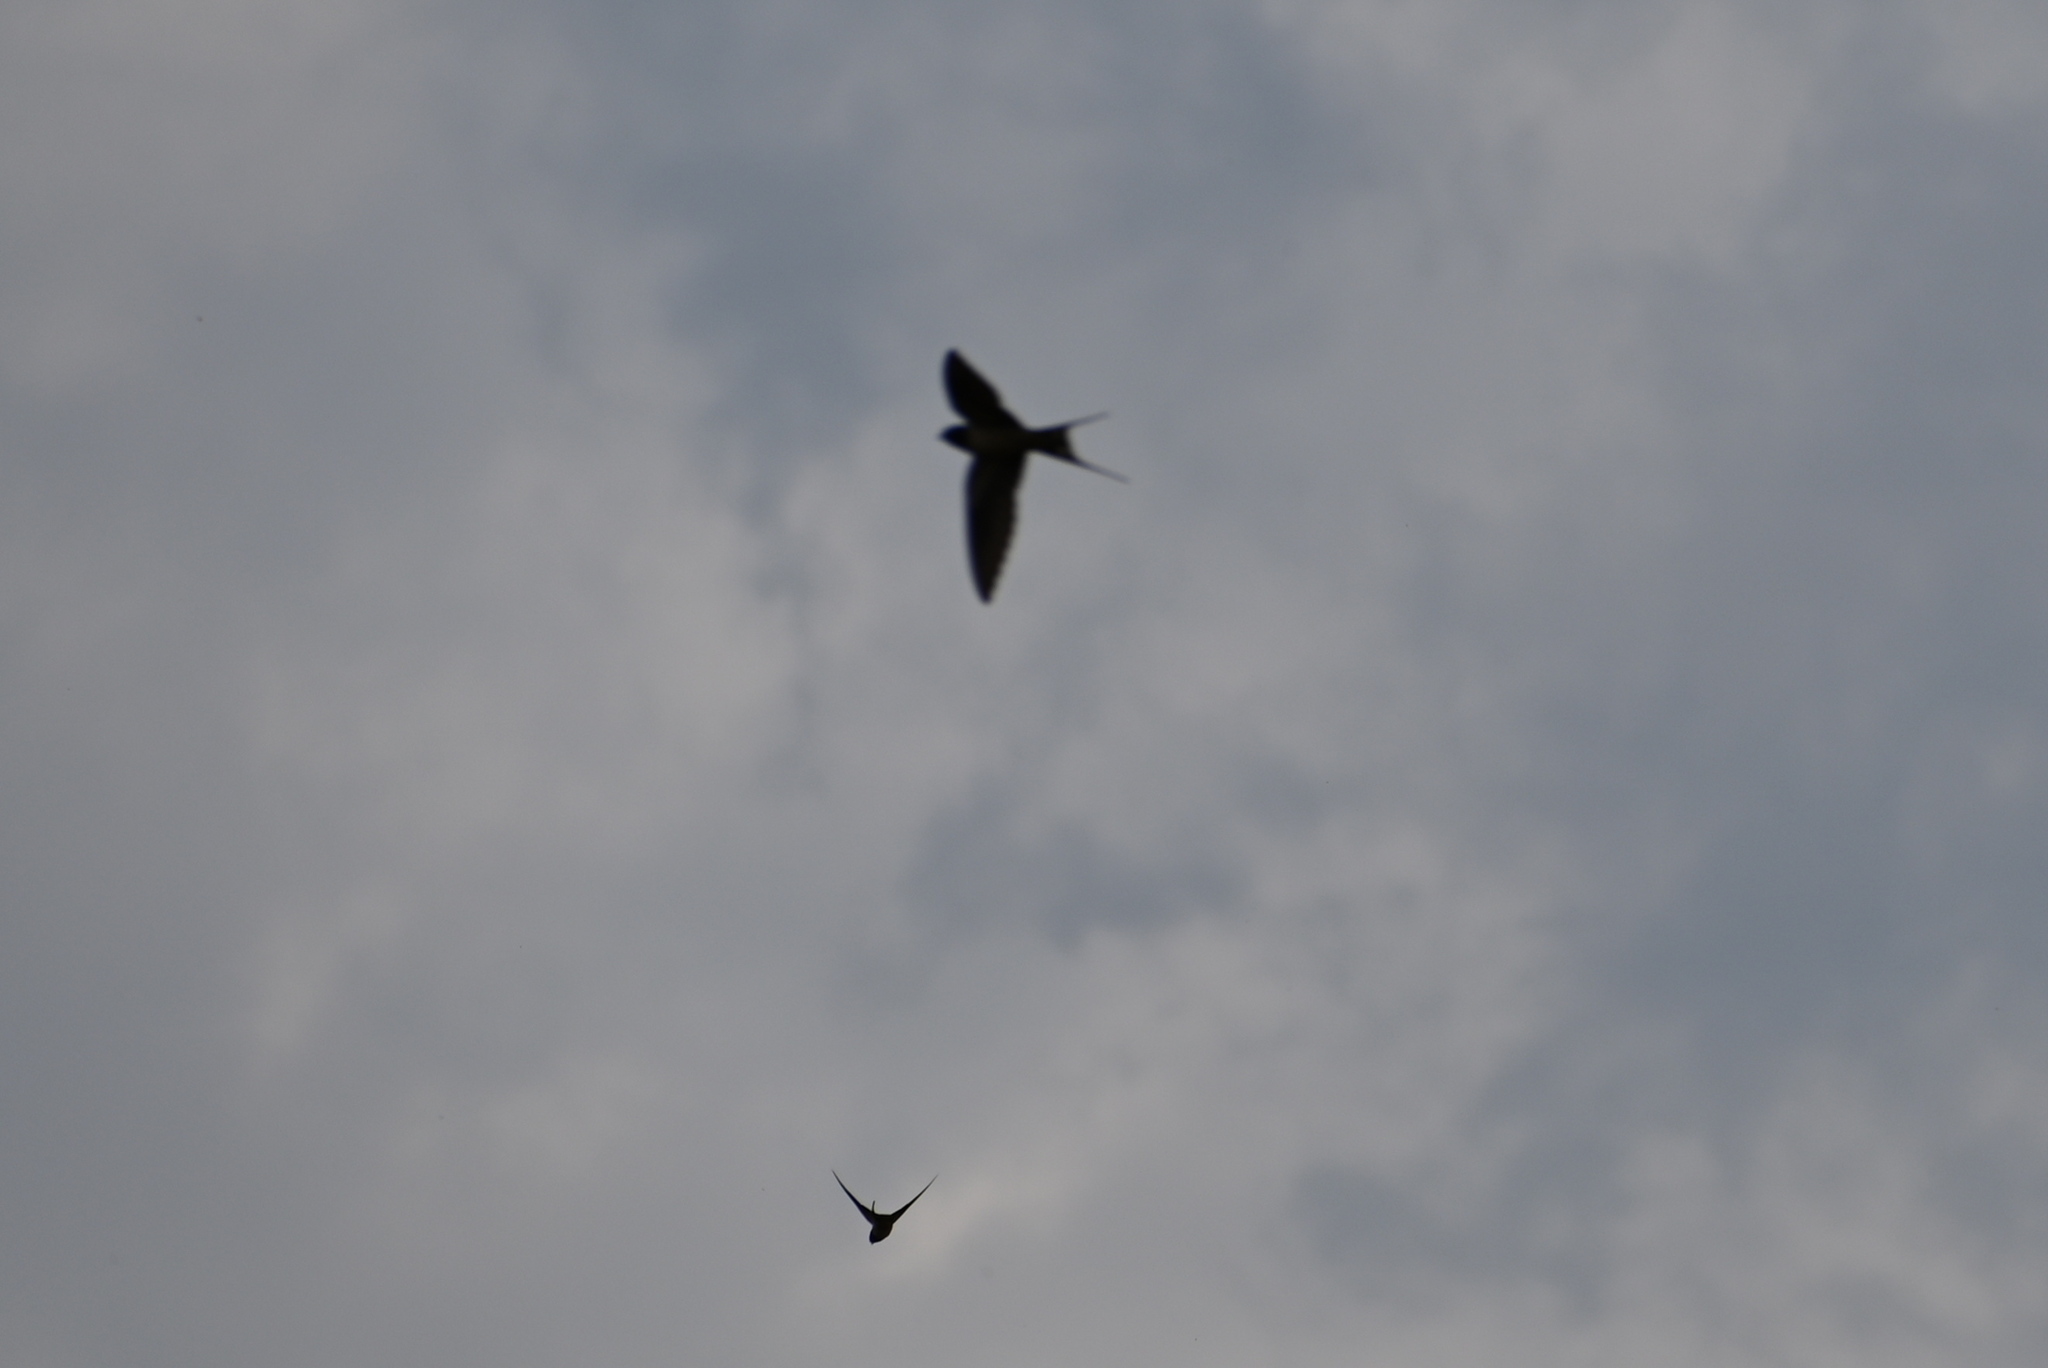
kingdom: Animalia
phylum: Chordata
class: Aves
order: Passeriformes
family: Hirundinidae
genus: Hirundo
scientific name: Hirundo rustica
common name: Barn swallow
